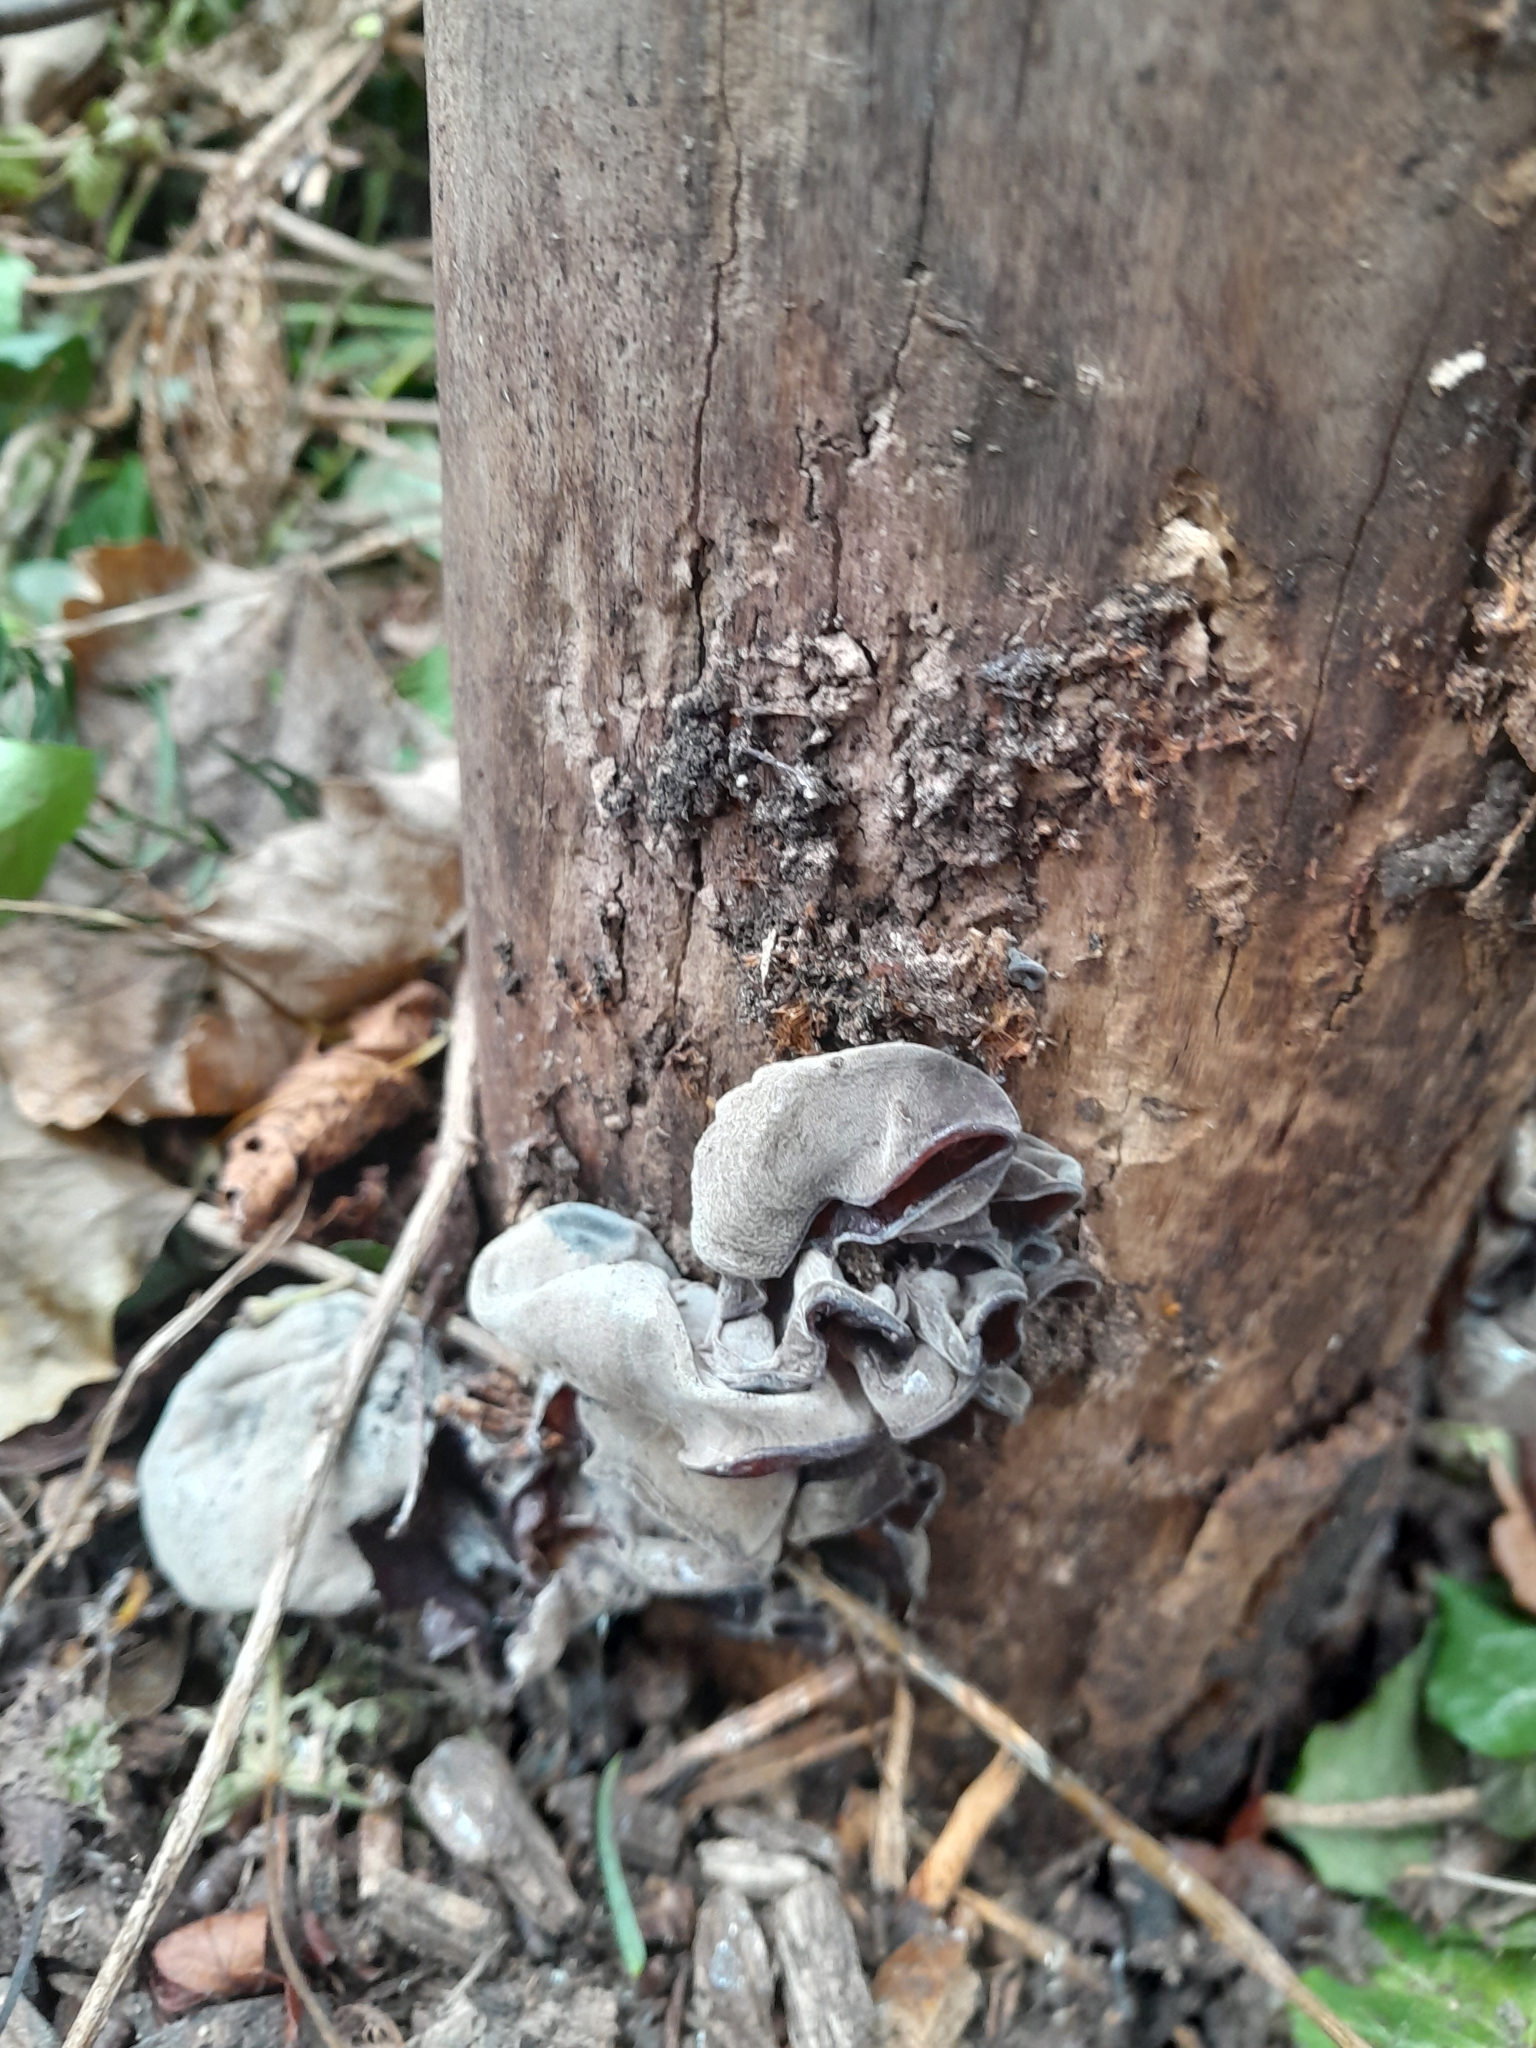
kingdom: Fungi
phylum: Basidiomycota
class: Agaricomycetes
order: Auriculariales
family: Auriculariaceae
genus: Auricularia
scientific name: Auricularia auricula-judae
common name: Jelly ear
